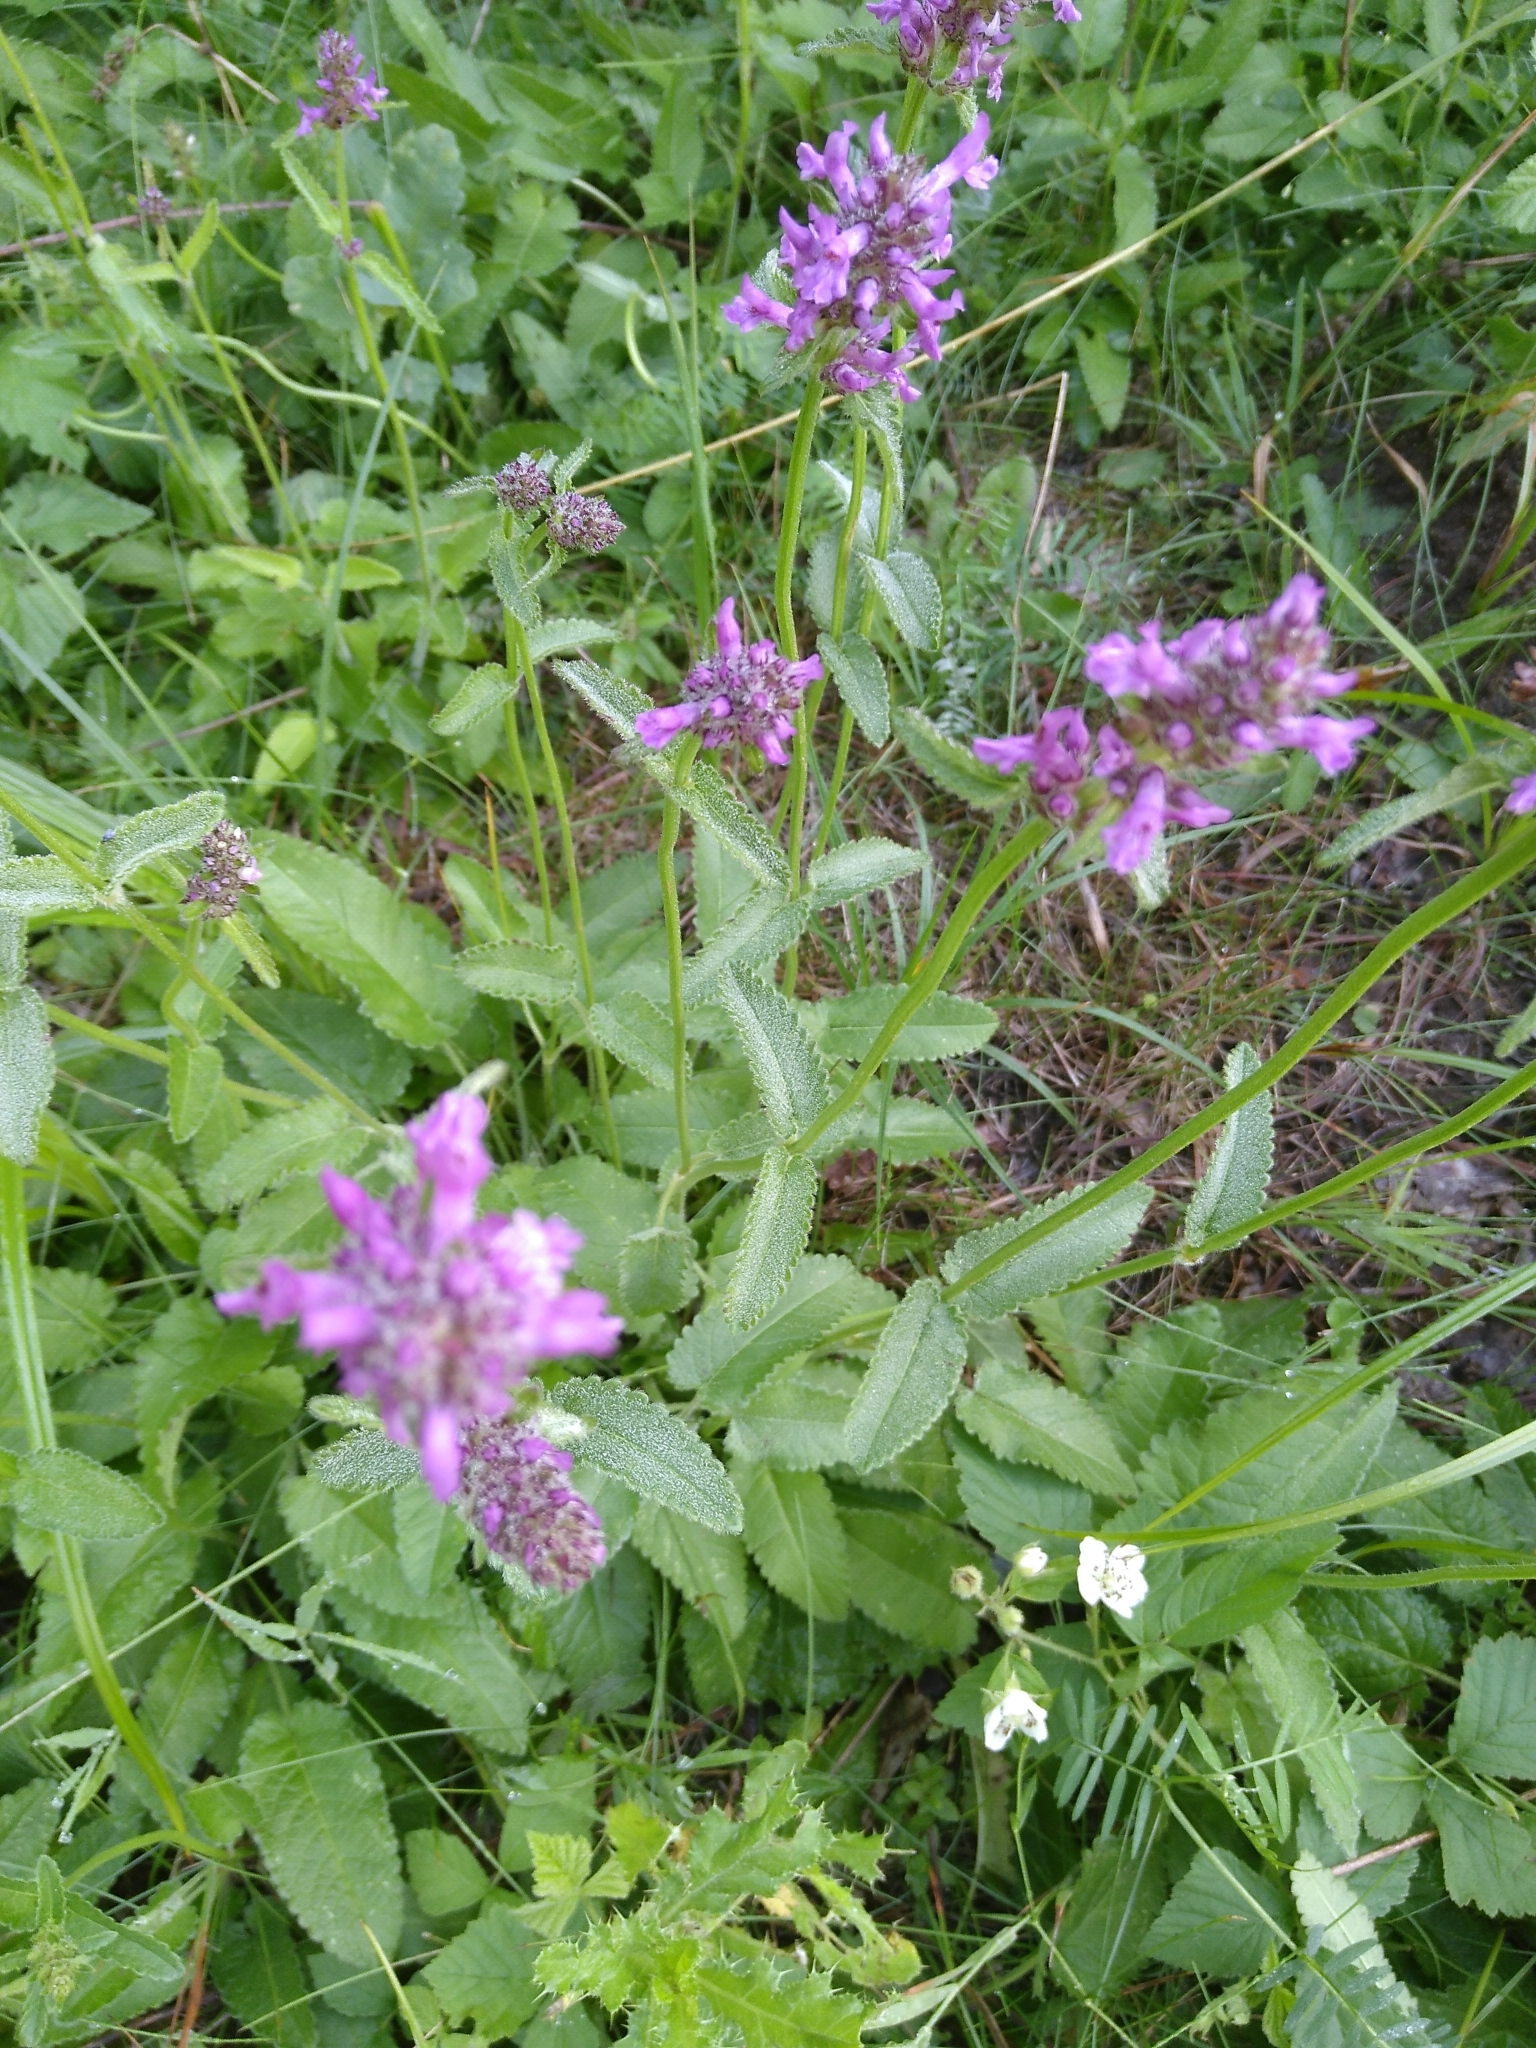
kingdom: Plantae
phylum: Tracheophyta
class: Magnoliopsida
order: Lamiales
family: Lamiaceae
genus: Betonica
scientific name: Betonica officinalis
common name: Bishop's-wort
